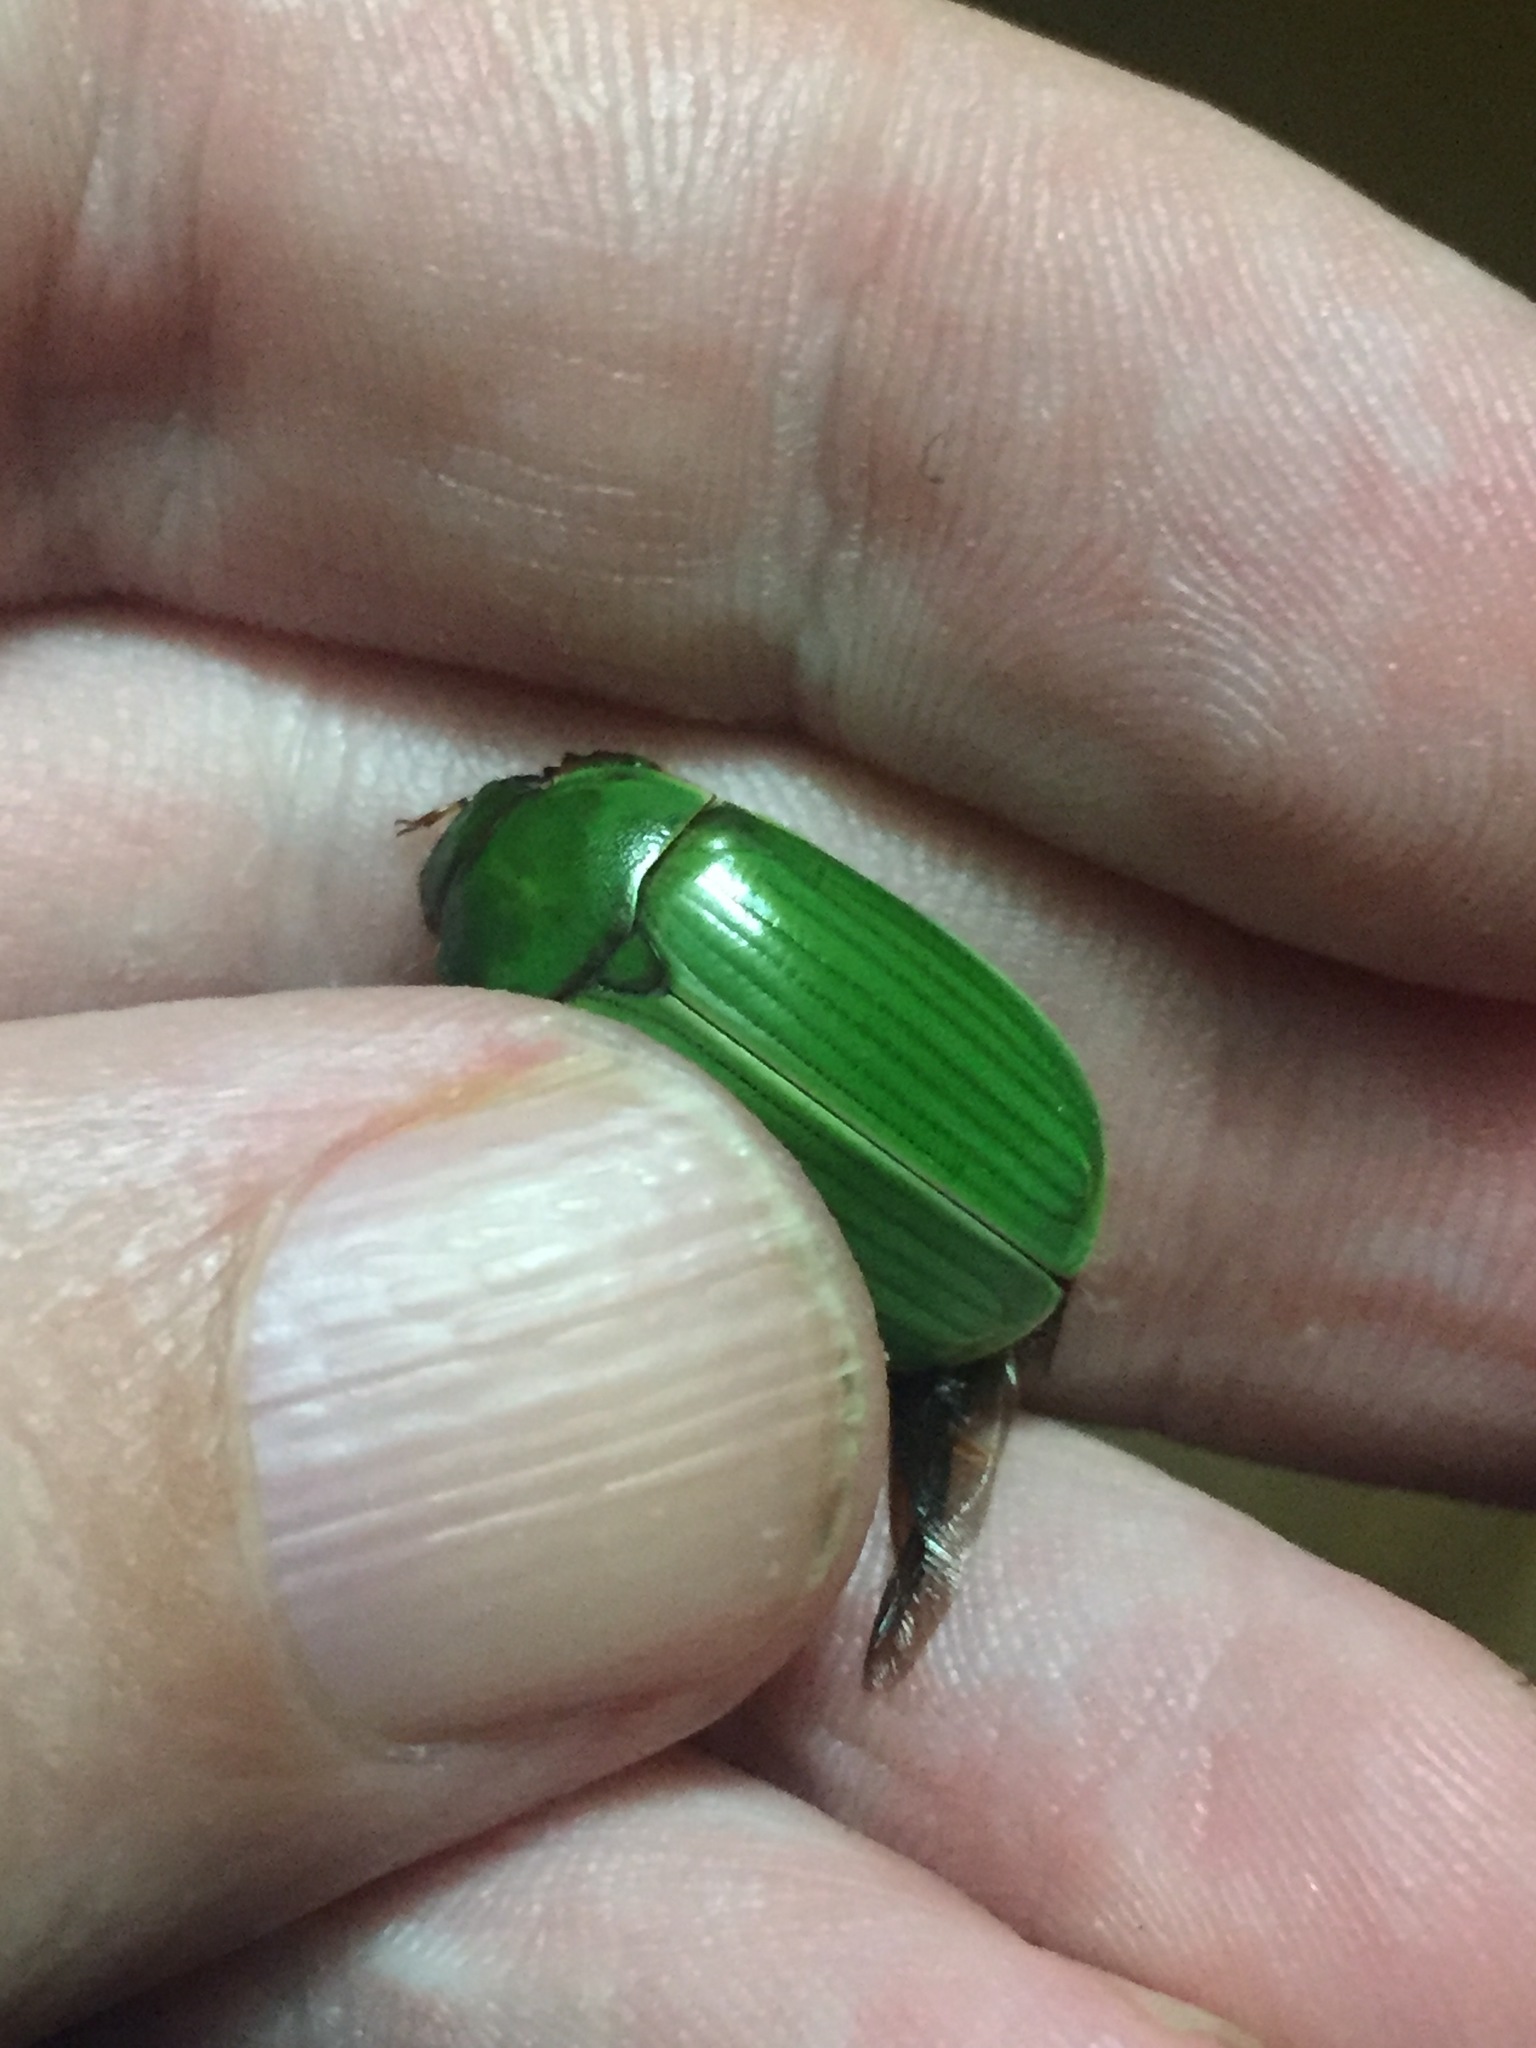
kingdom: Animalia
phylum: Arthropoda
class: Insecta
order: Coleoptera
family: Scarabaeidae
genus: Stethaspis
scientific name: Stethaspis longicornis
